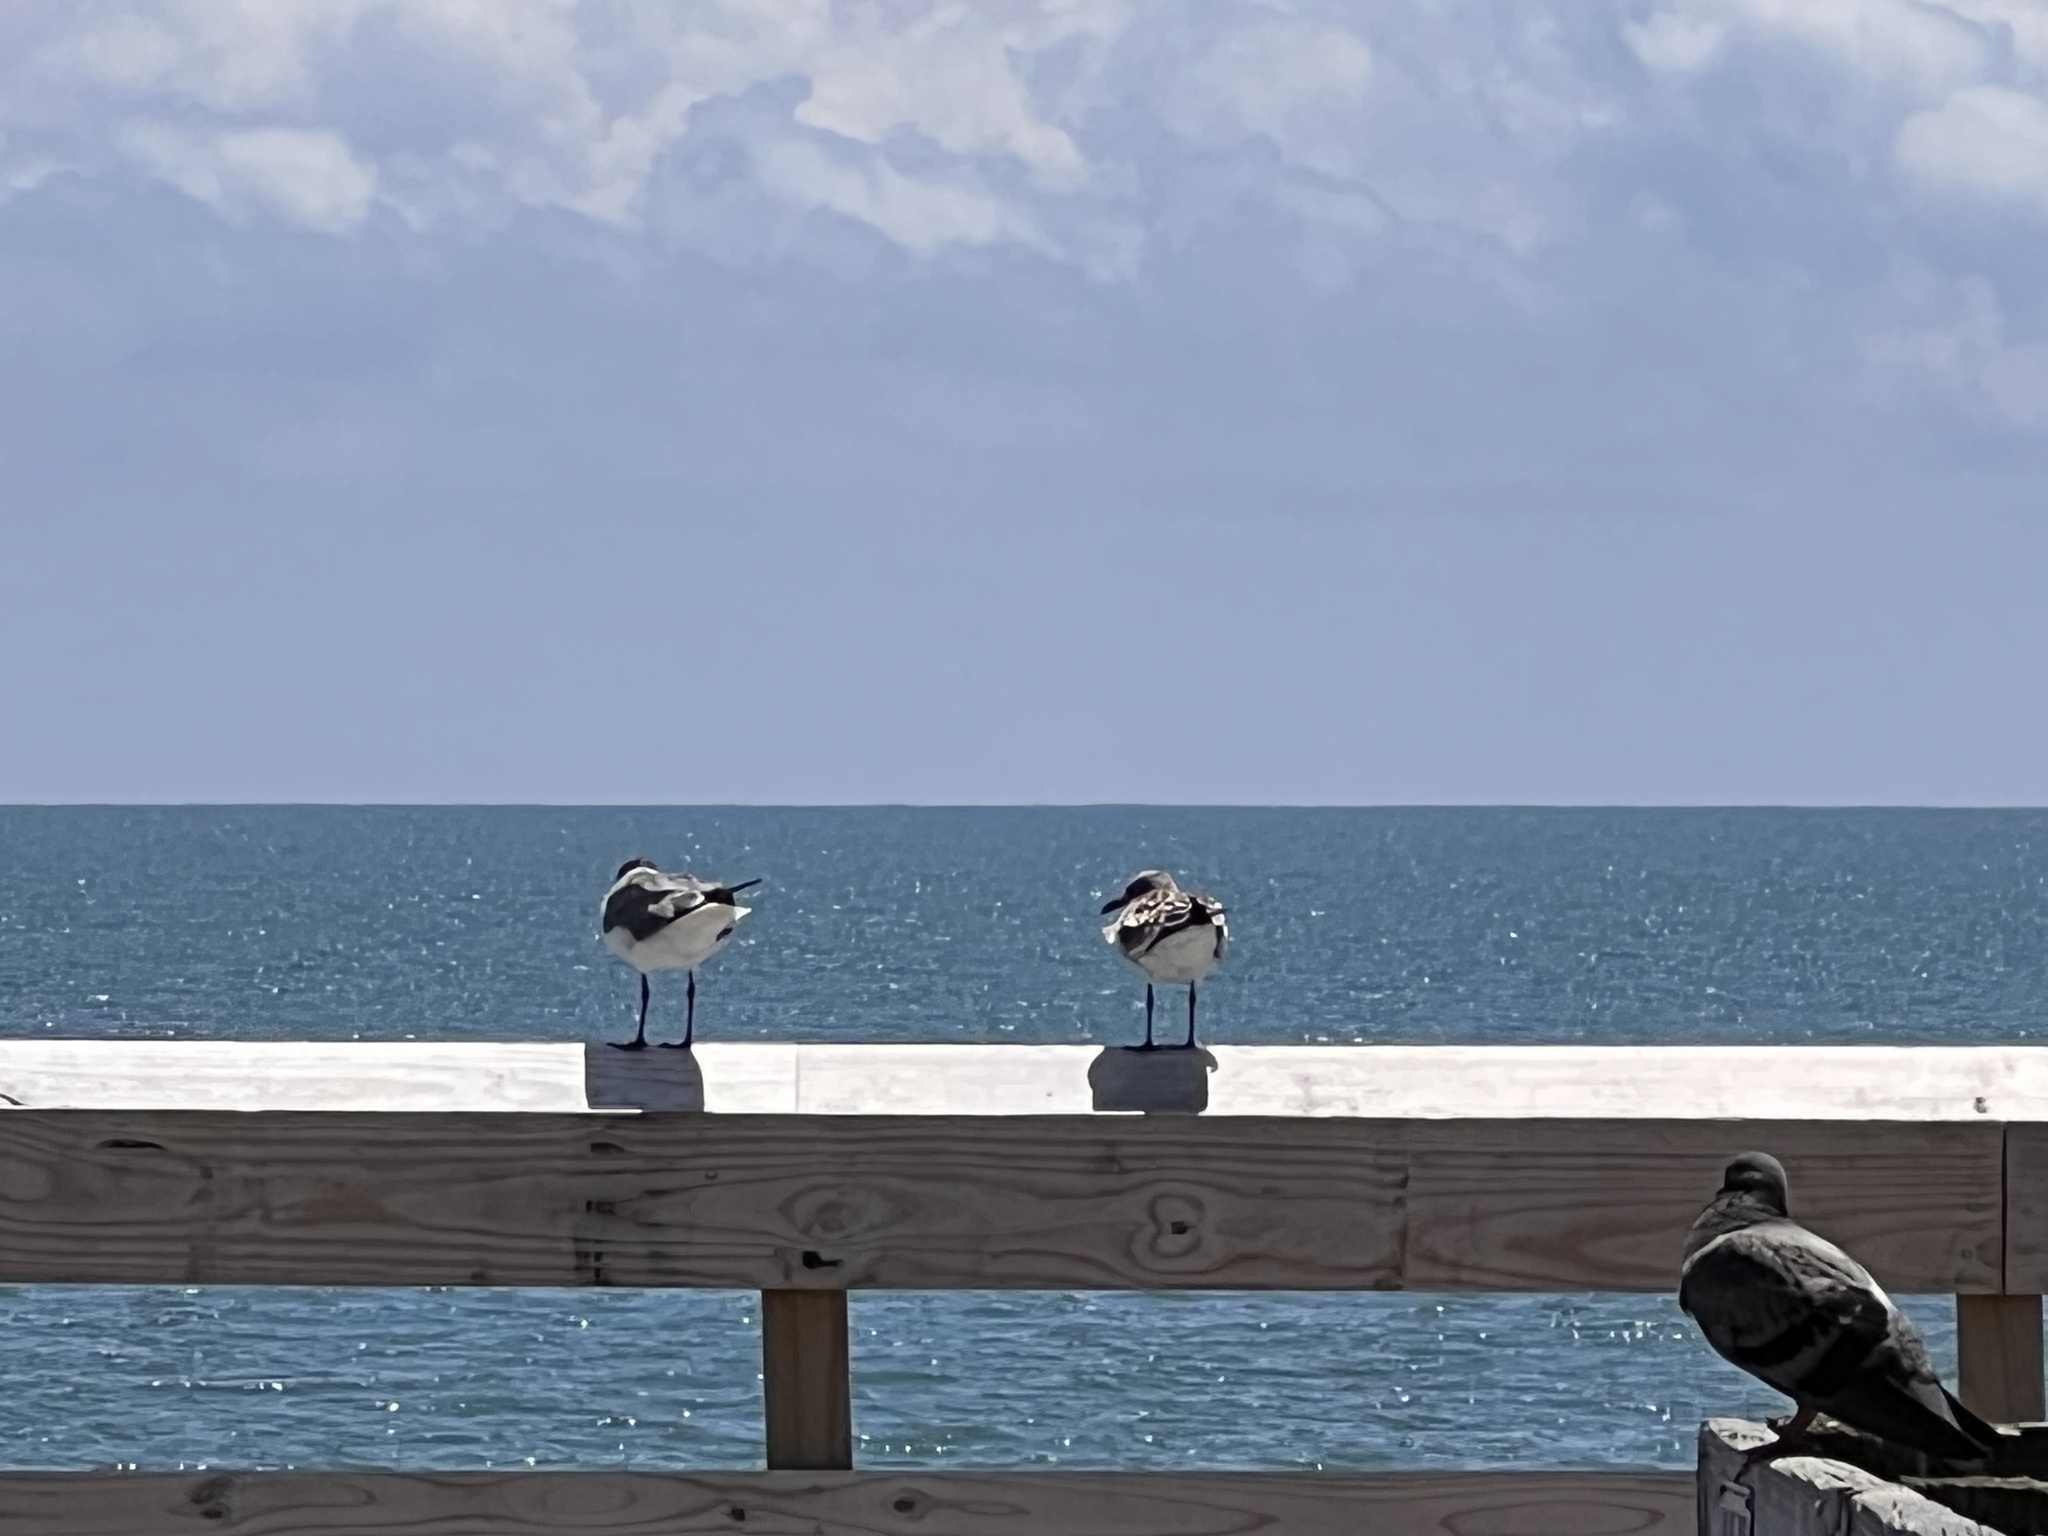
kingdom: Animalia
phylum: Chordata
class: Aves
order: Charadriiformes
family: Laridae
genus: Leucophaeus
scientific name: Leucophaeus atricilla
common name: Laughing gull
